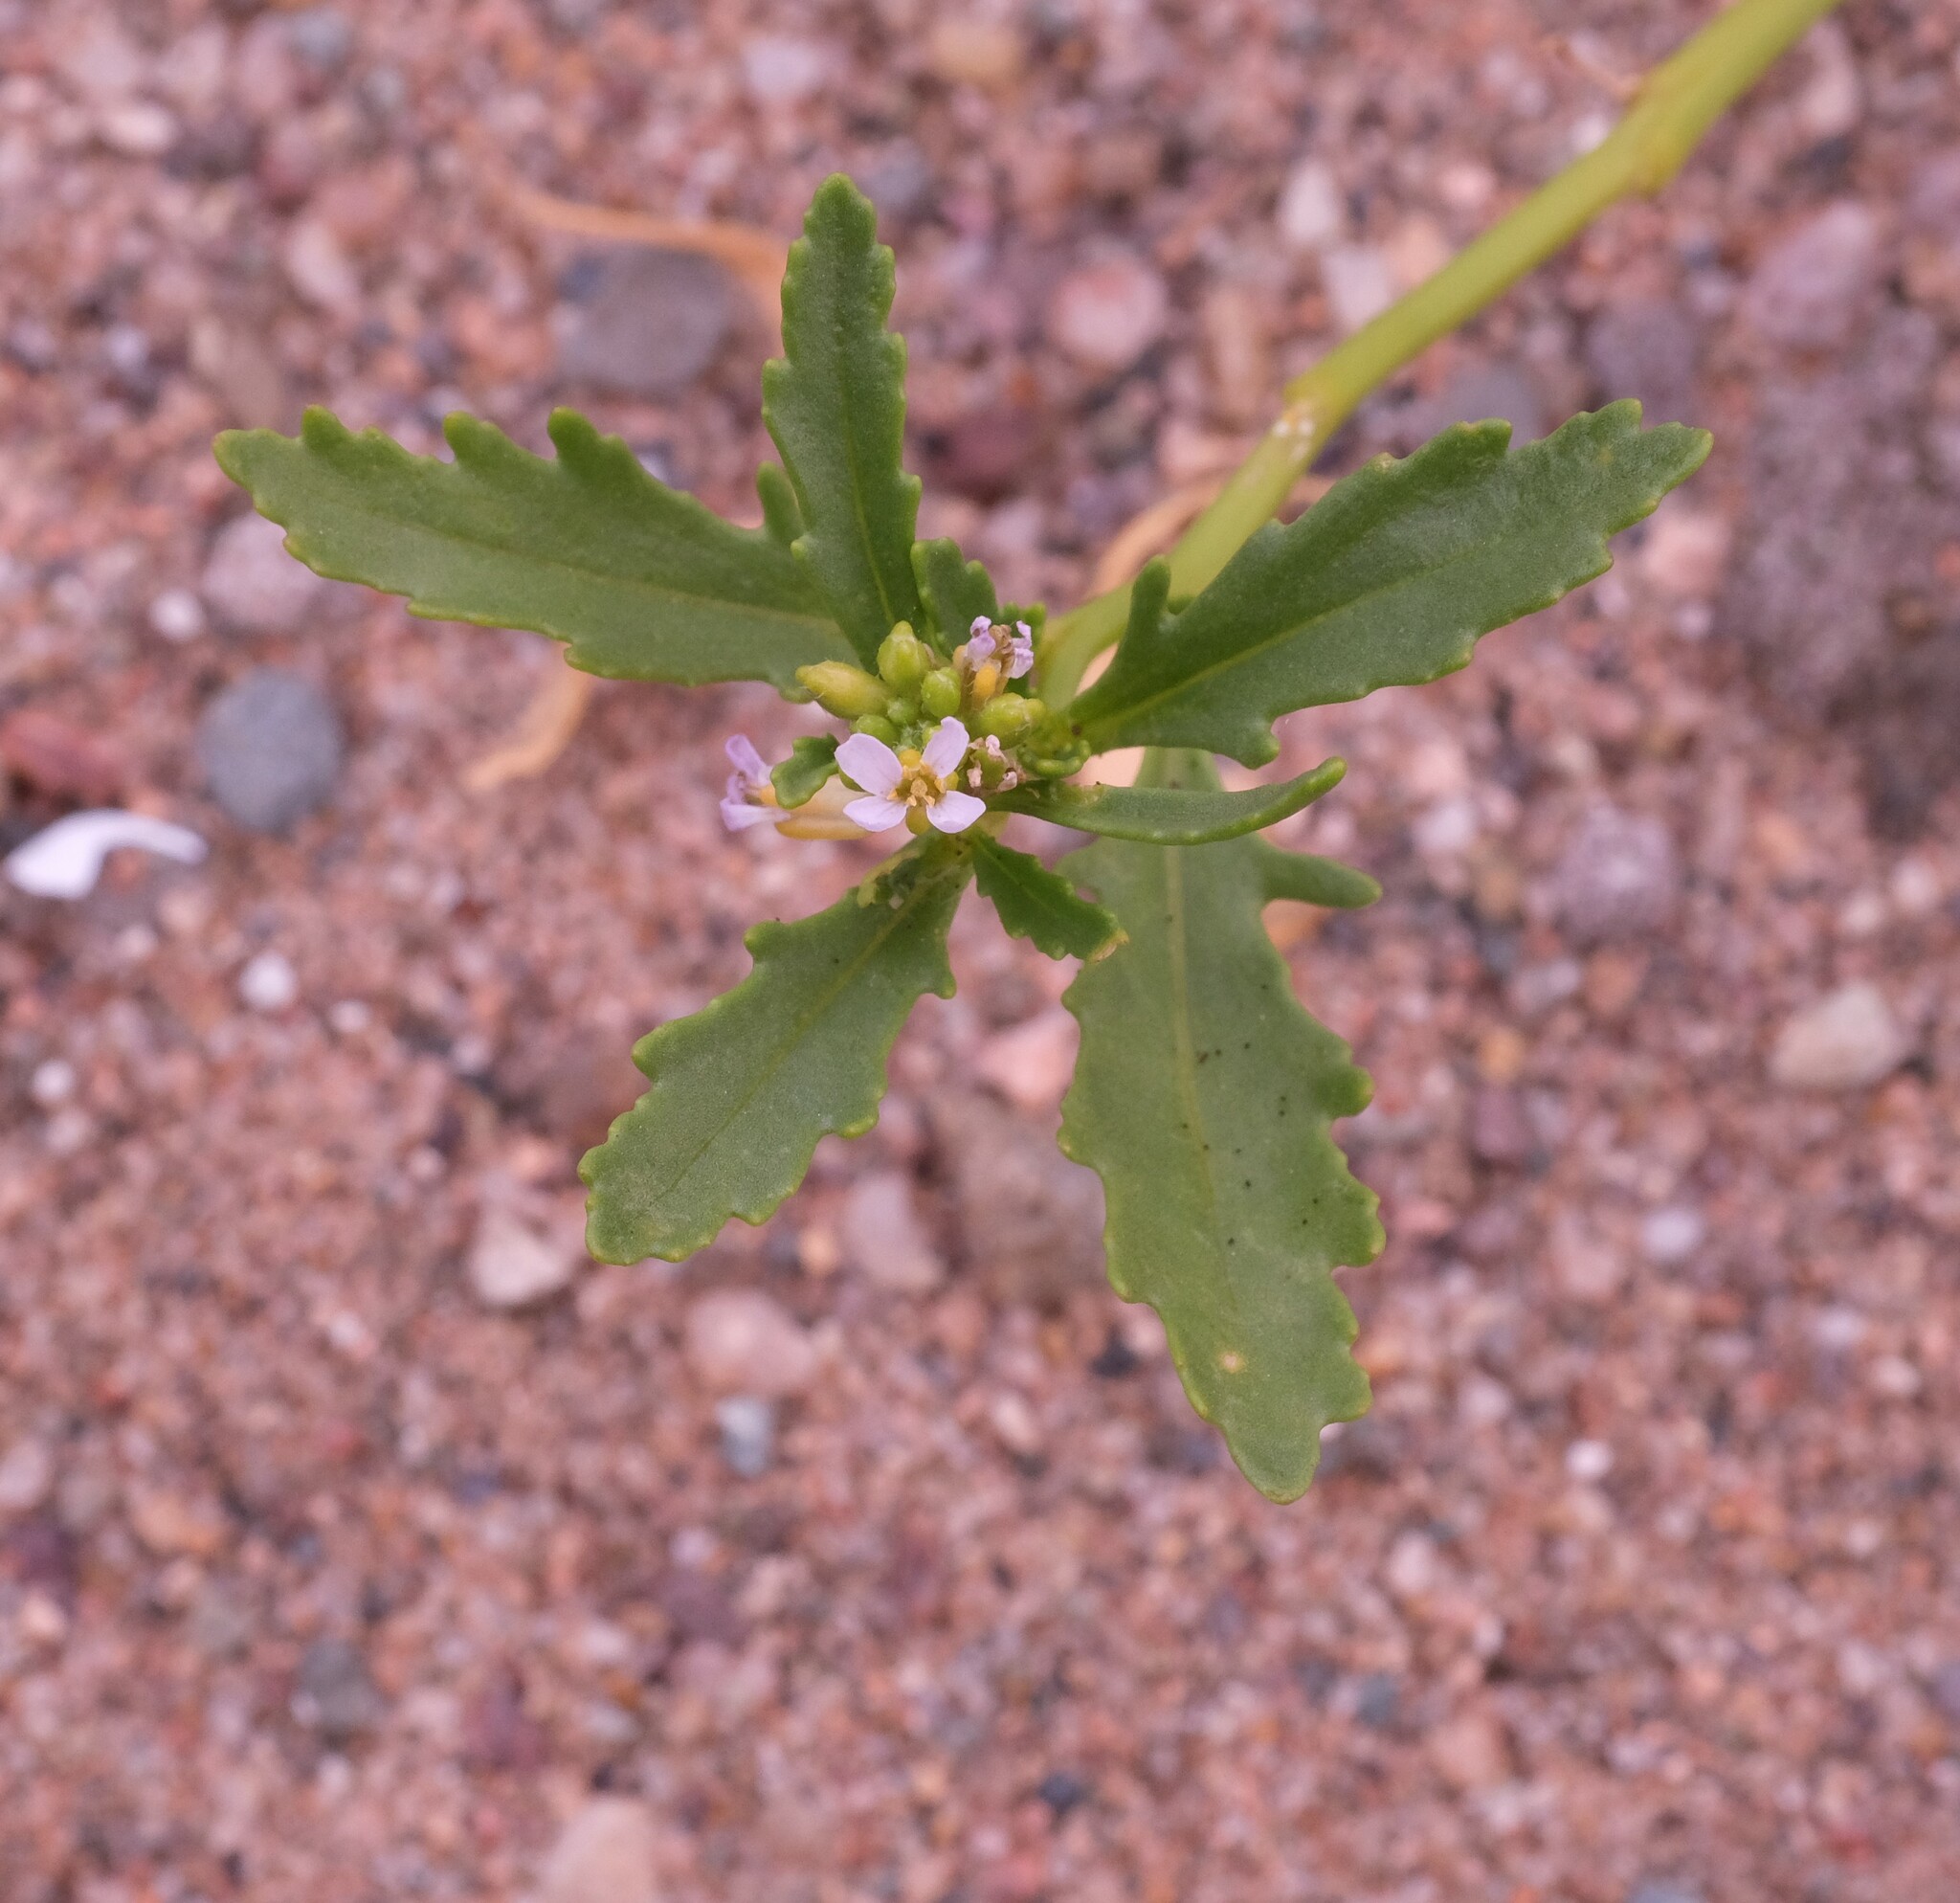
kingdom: Plantae
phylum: Tracheophyta
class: Magnoliopsida
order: Brassicales
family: Brassicaceae
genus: Cakile
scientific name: Cakile edentula
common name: American sea rocket
